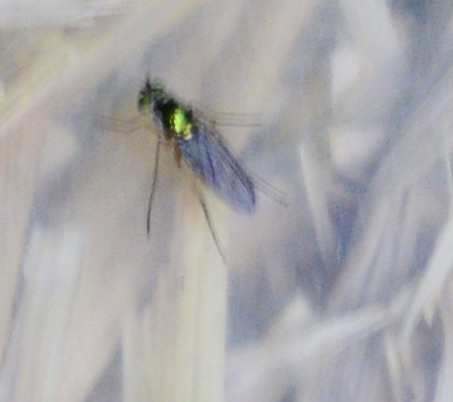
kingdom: Animalia
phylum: Arthropoda
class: Insecta
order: Diptera
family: Dolichopodidae
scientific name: Dolichopodidae
